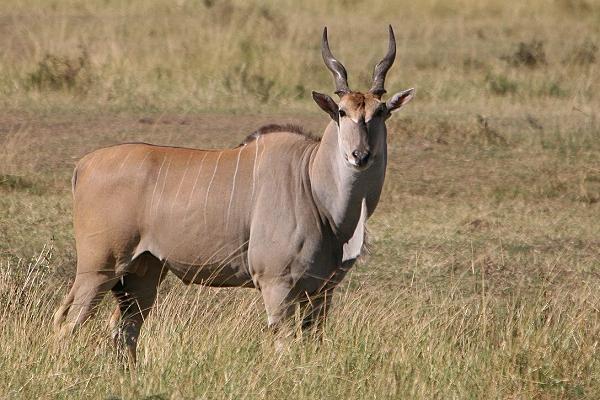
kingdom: Animalia
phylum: Chordata
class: Mammalia
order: Artiodactyla
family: Bovidae
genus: Taurotragus
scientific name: Taurotragus oryx
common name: Common eland
